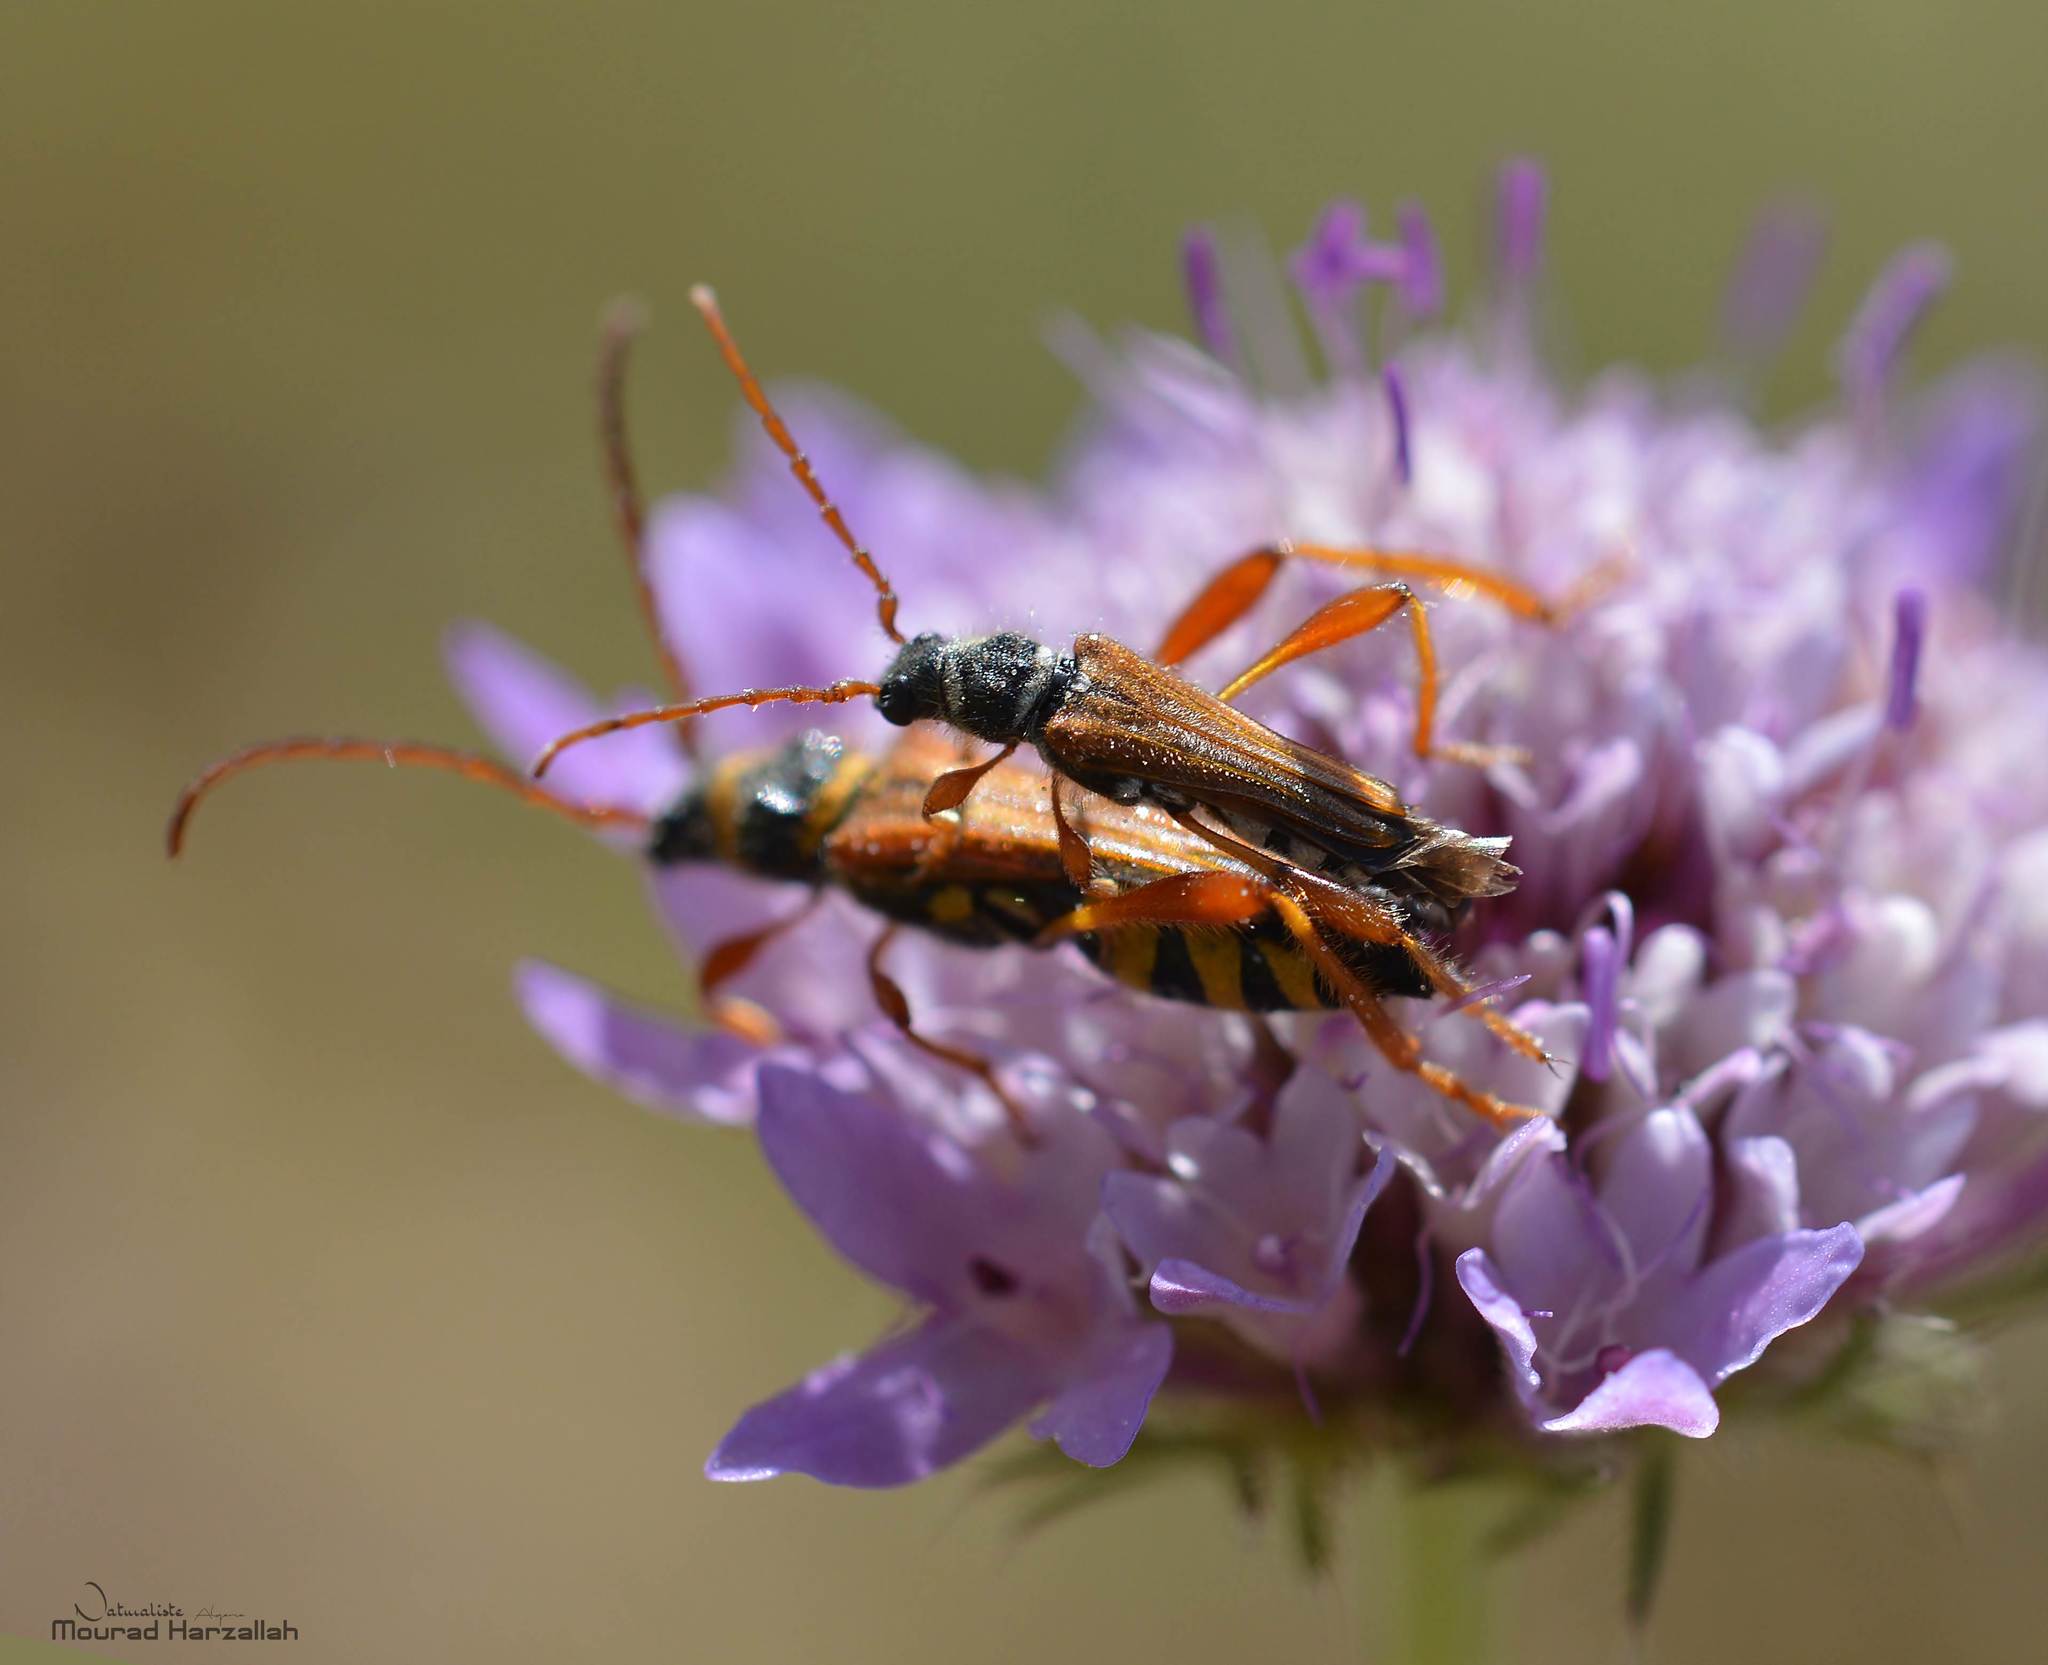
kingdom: Animalia
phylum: Arthropoda
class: Insecta
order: Coleoptera
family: Cerambycidae
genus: Stenopterus
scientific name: Stenopterus mauritanicus
